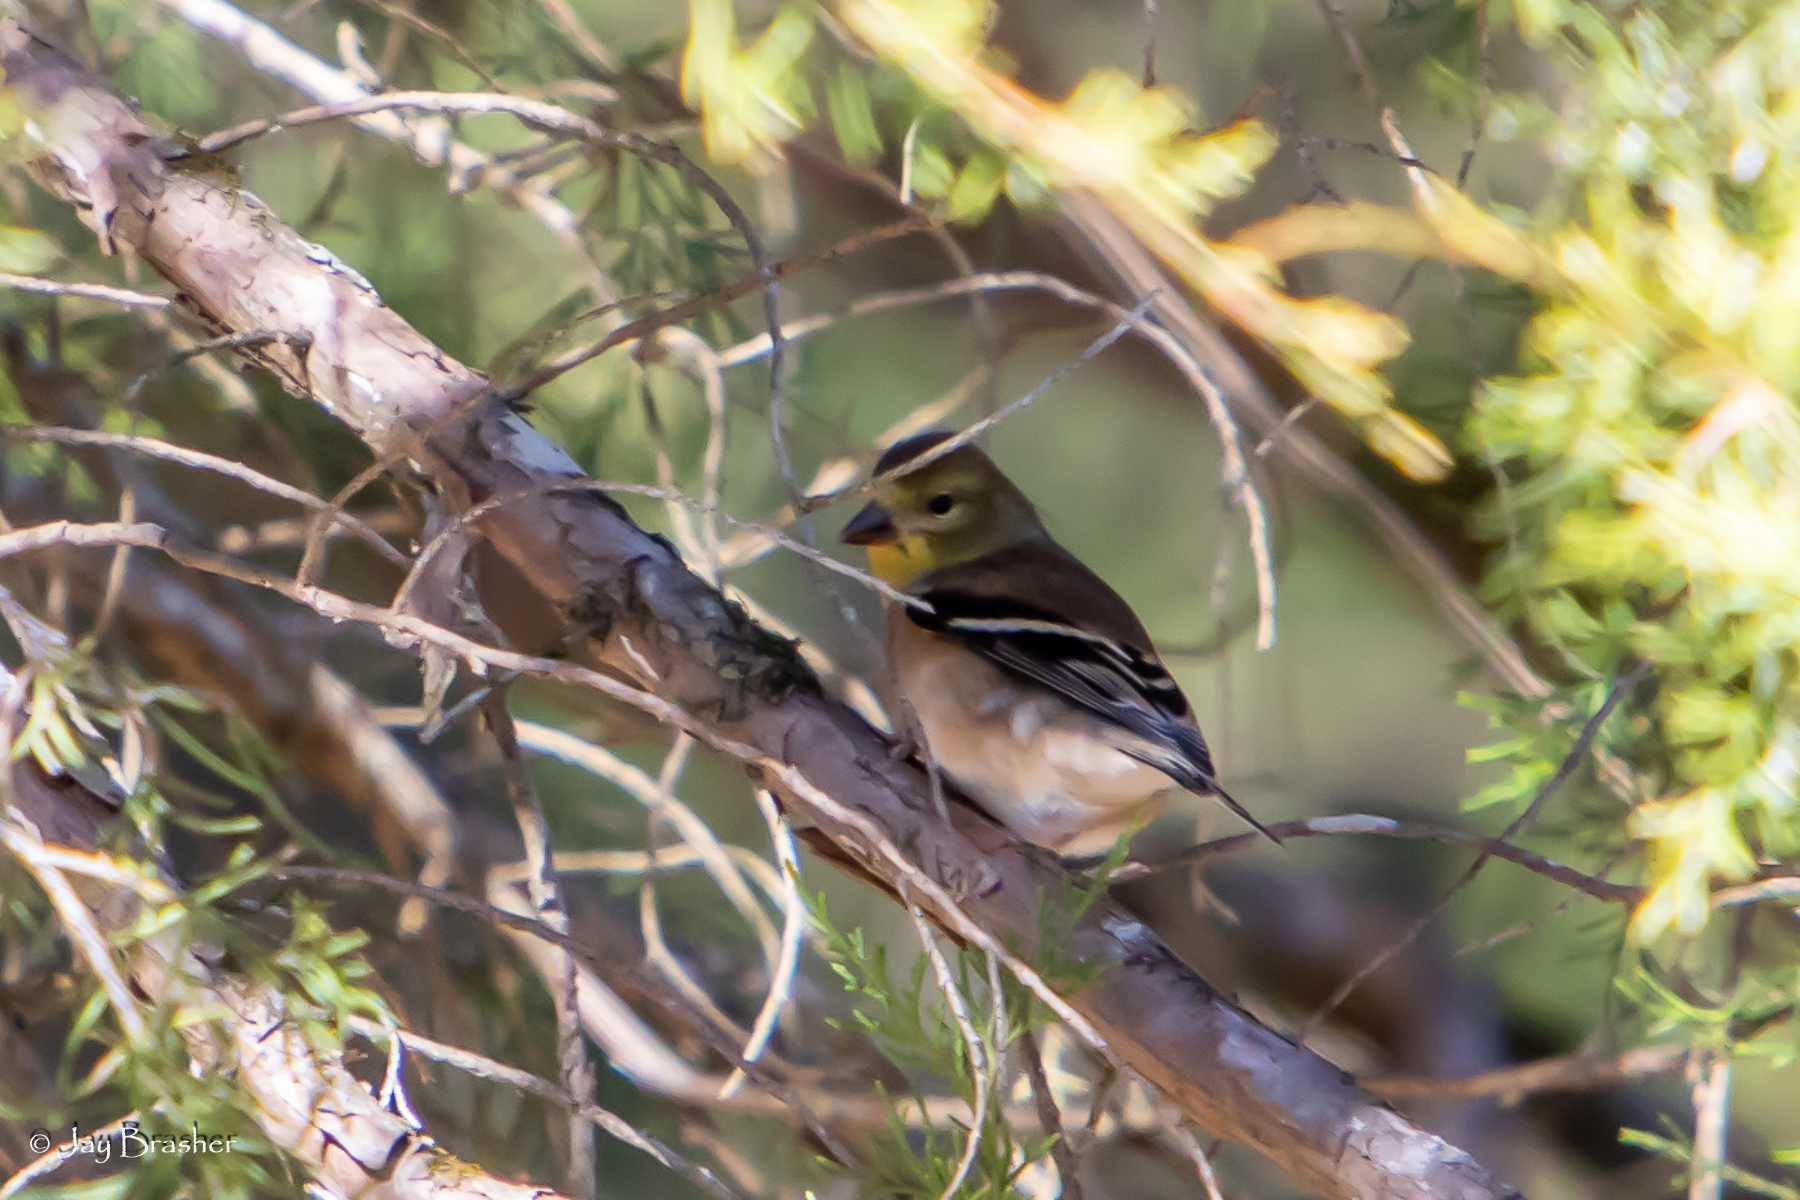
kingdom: Animalia
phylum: Chordata
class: Aves
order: Passeriformes
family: Fringillidae
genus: Spinus
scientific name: Spinus tristis
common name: American goldfinch
